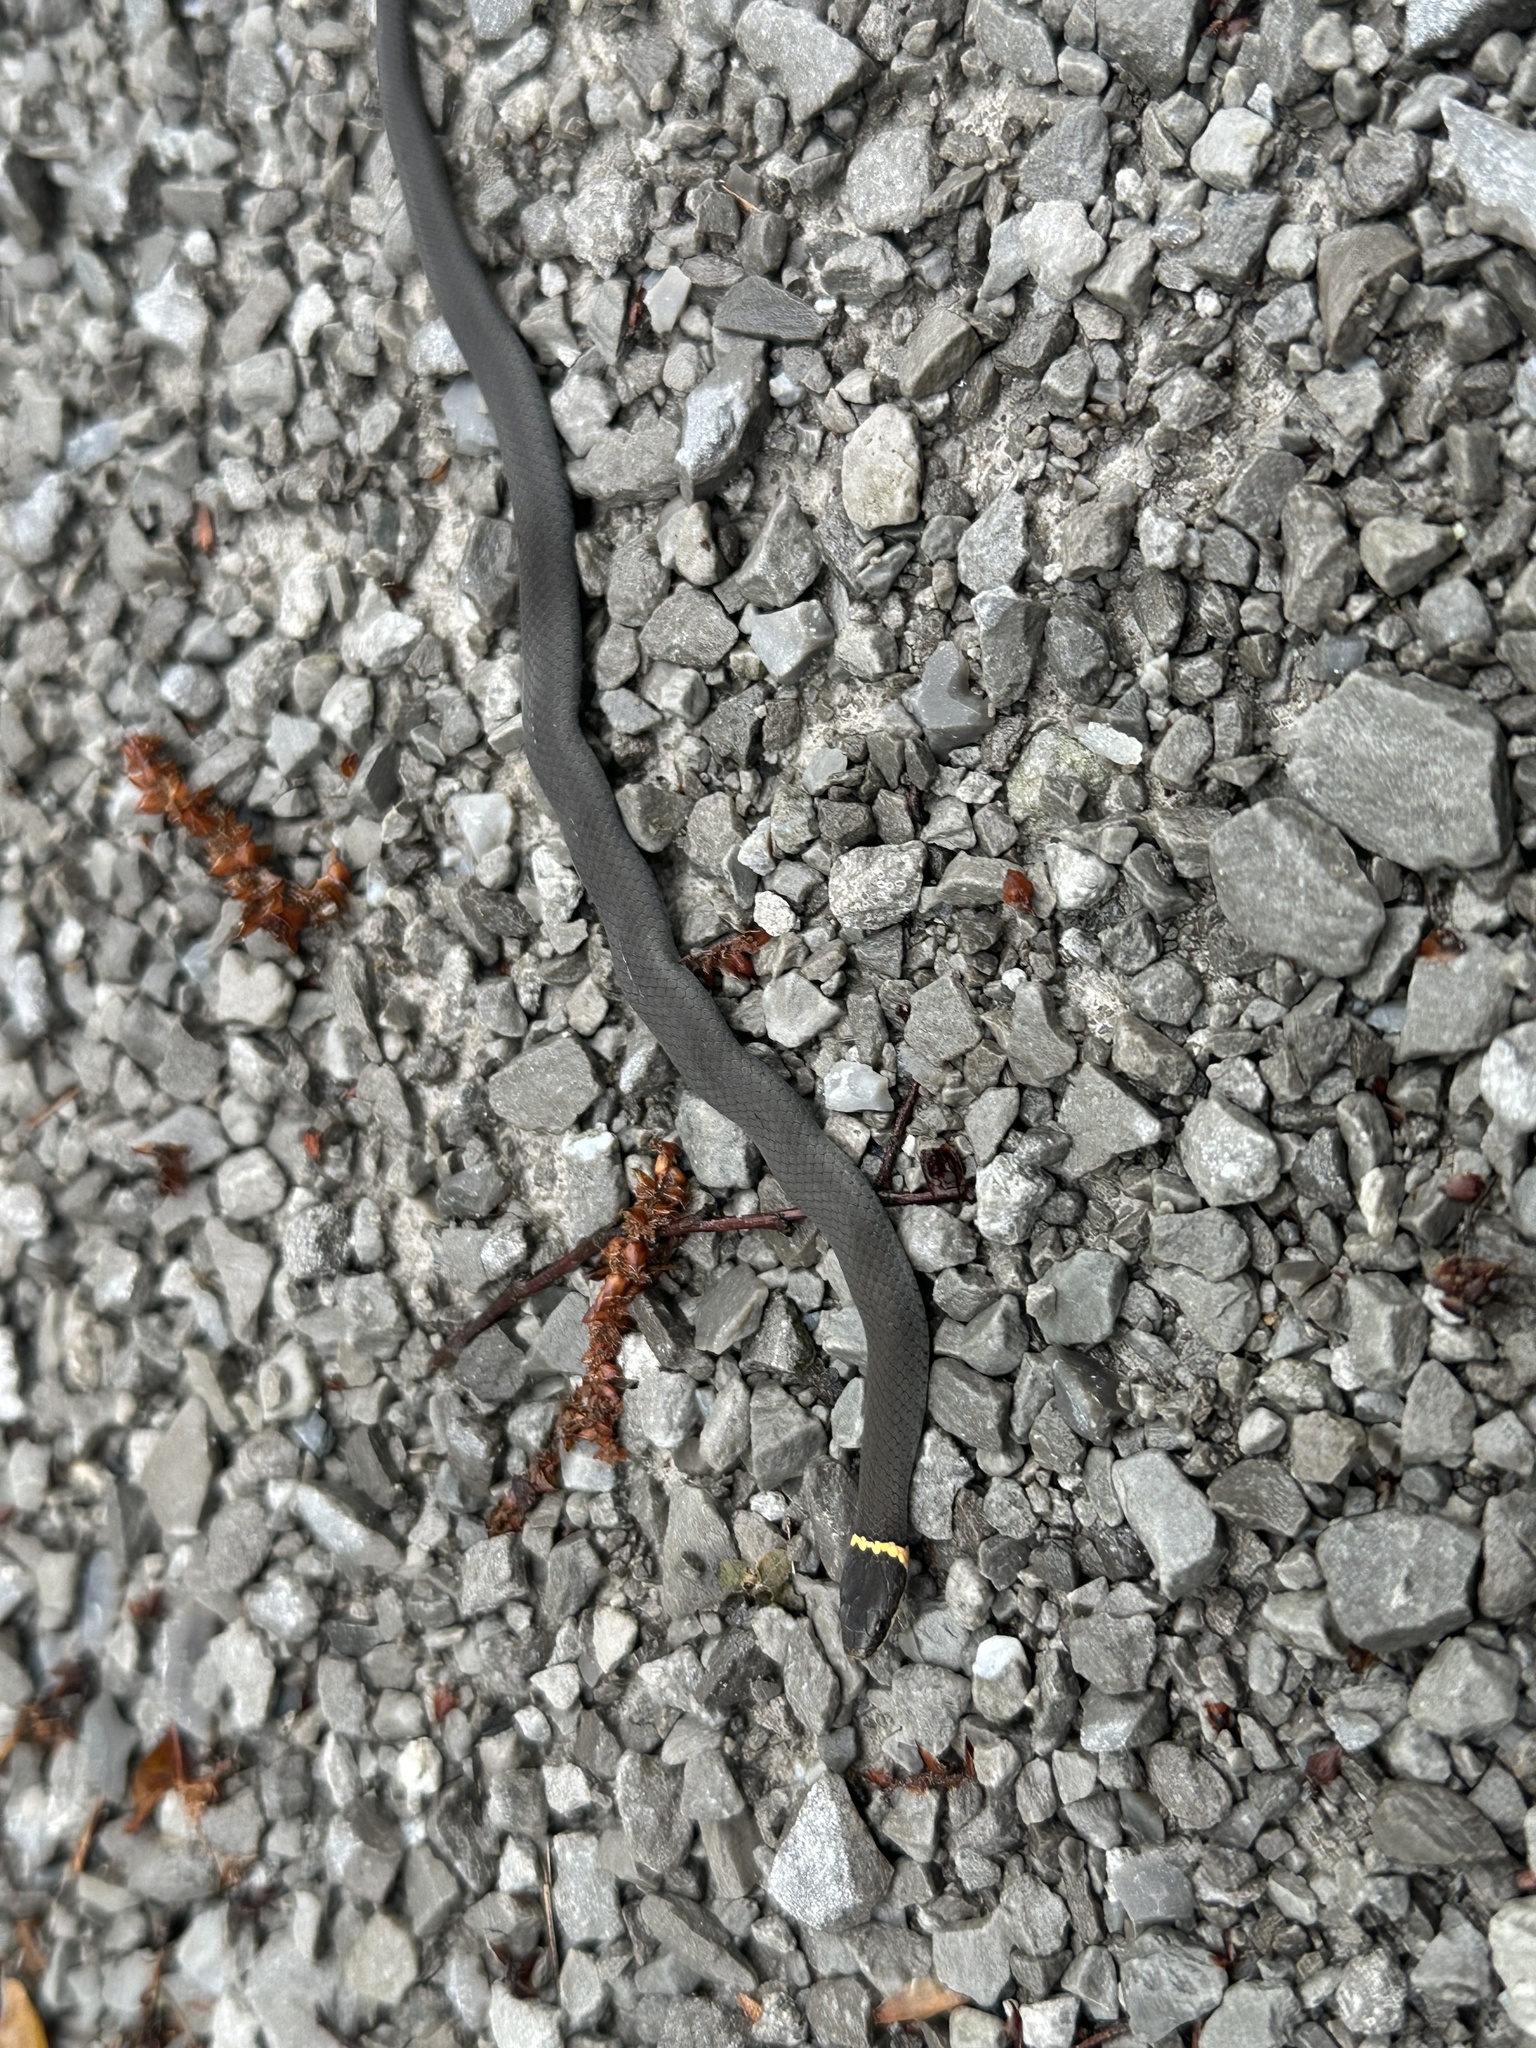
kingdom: Animalia
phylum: Chordata
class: Squamata
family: Colubridae
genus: Diadophis
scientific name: Diadophis punctatus
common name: Ringneck snake
